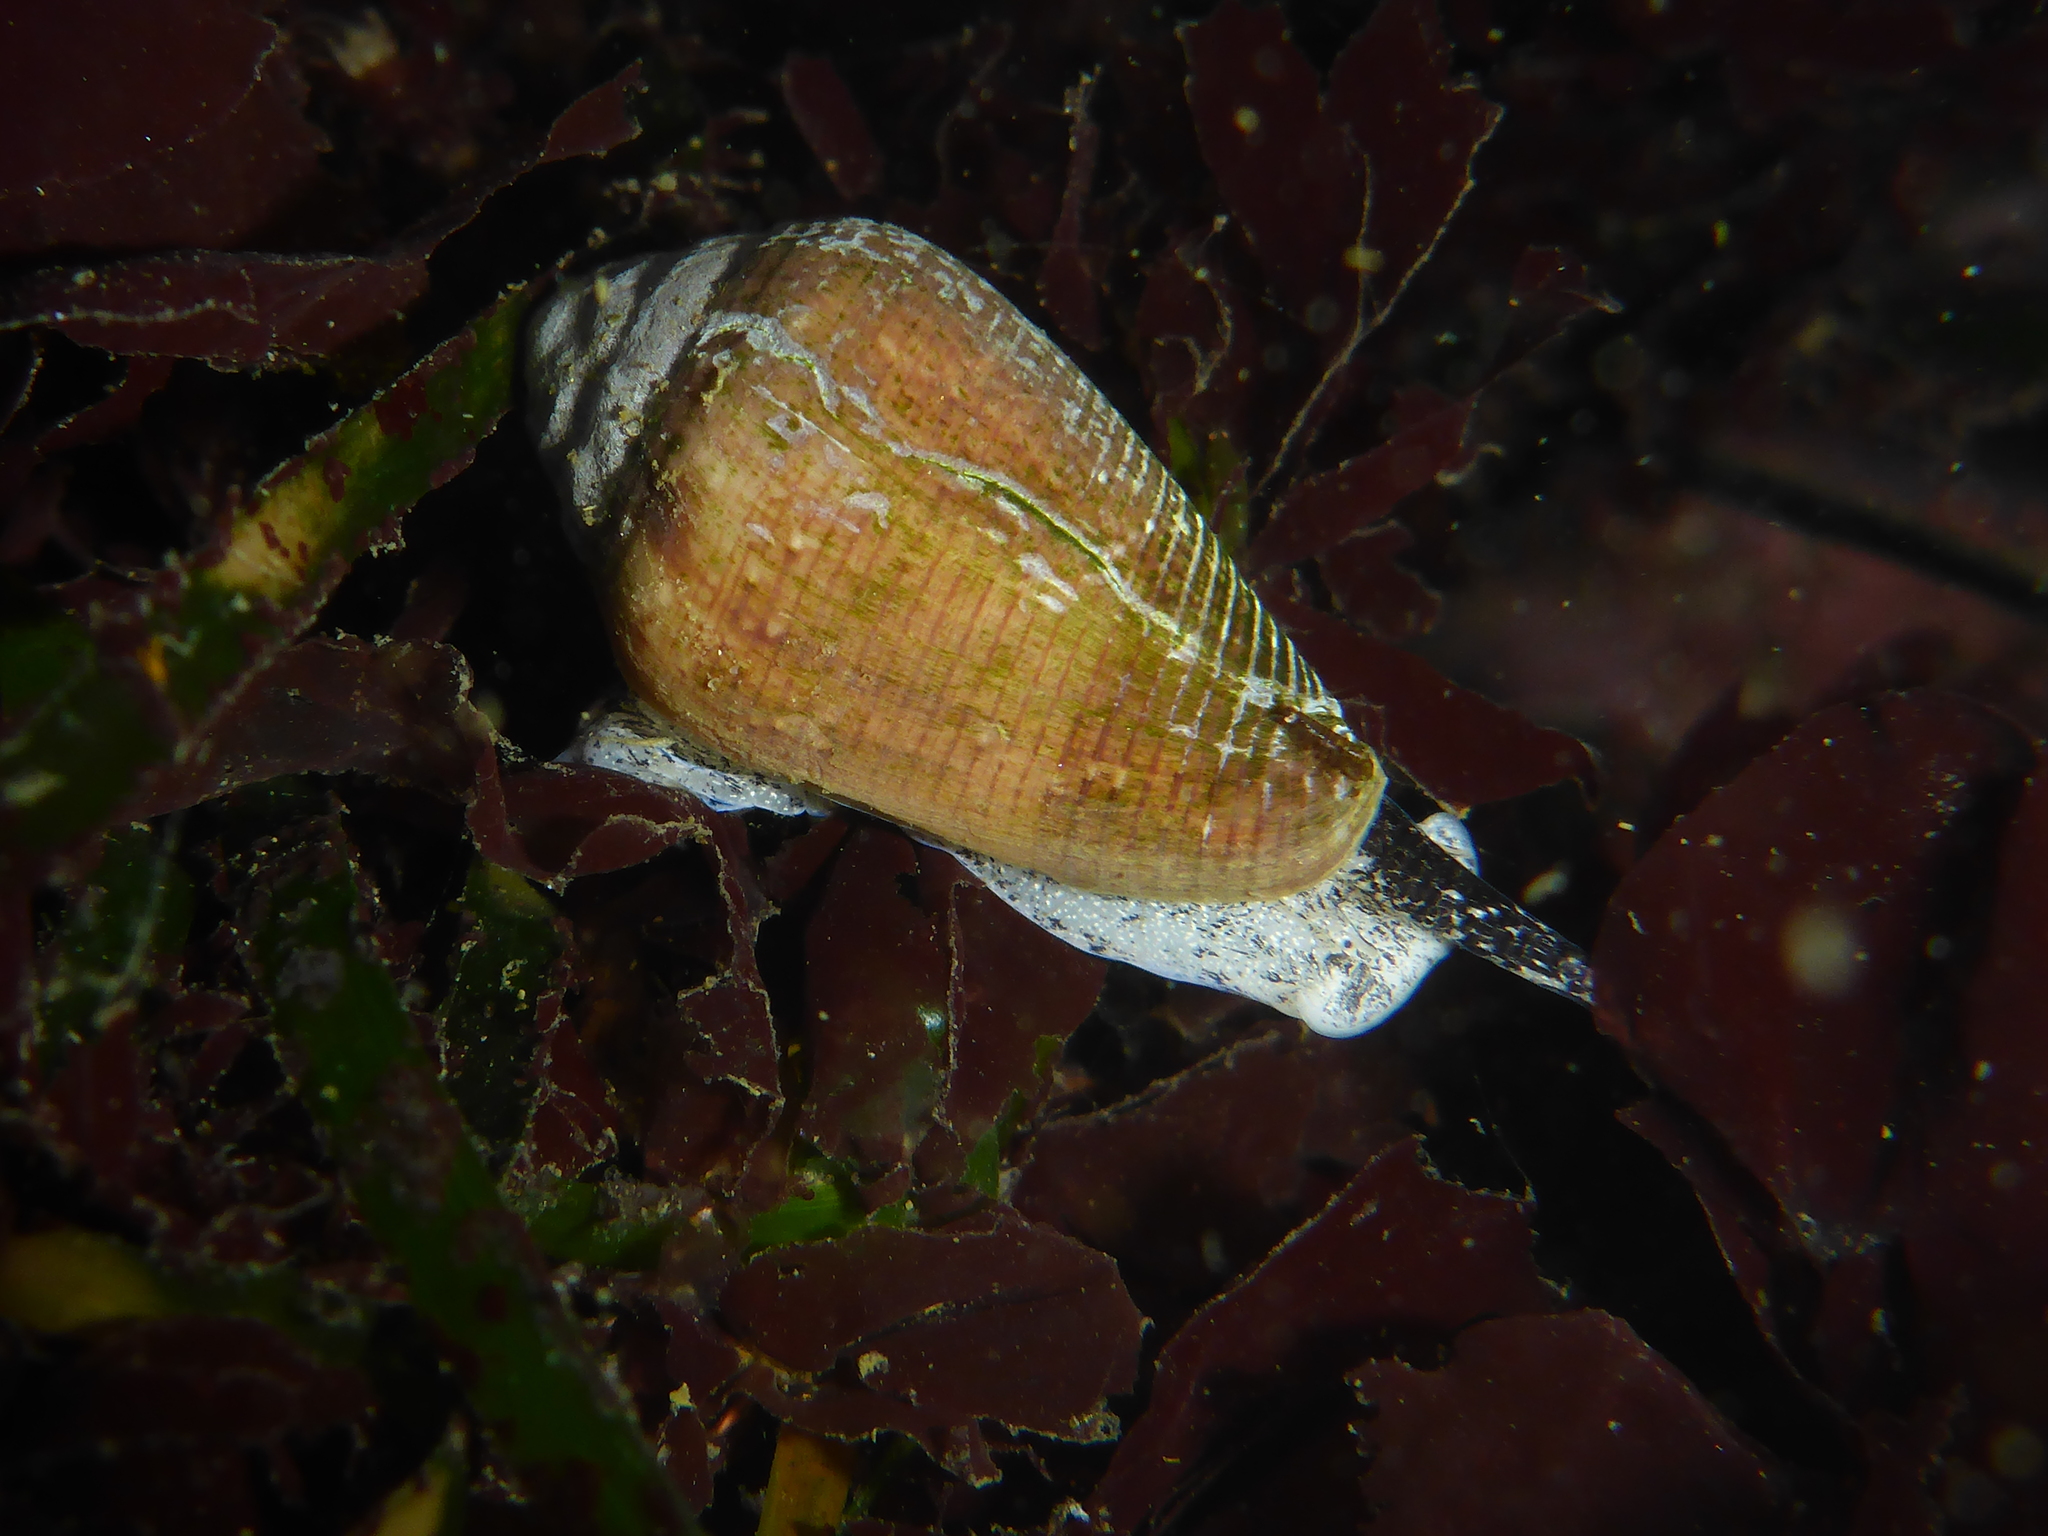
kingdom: Animalia
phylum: Mollusca
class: Gastropoda
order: Neogastropoda
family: Conidae
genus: Californiconus
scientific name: Californiconus californicus
